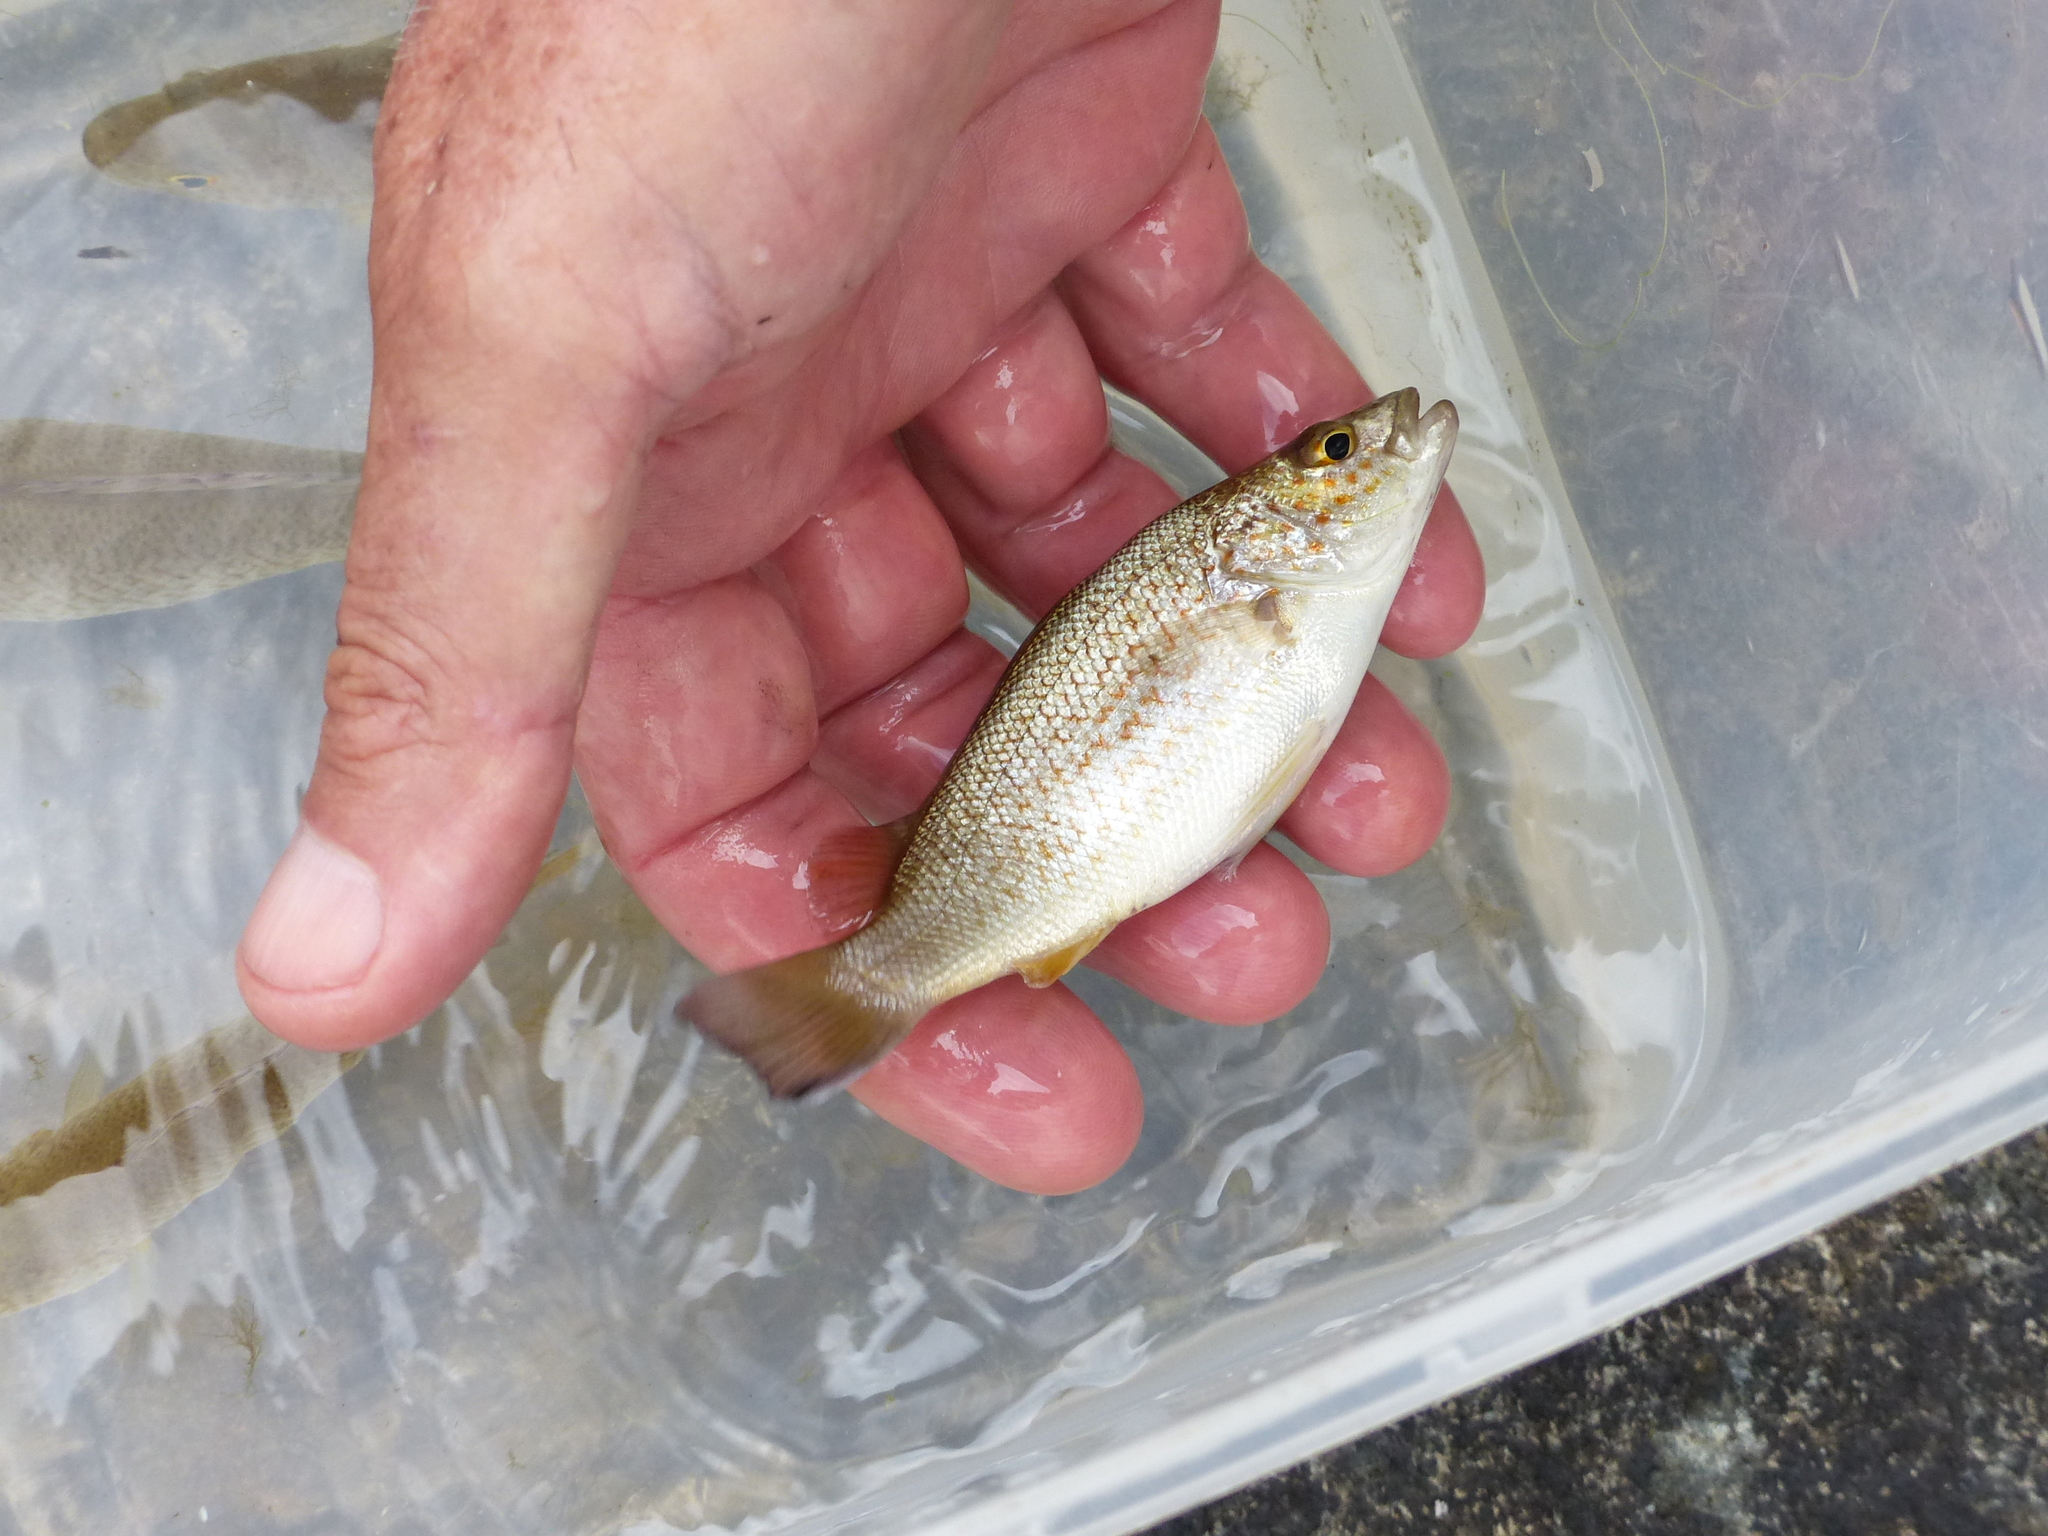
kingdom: Animalia
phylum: Chordata
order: Perciformes
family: Terapontidae
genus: Leiopotherapon
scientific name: Leiopotherapon unicolor
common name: Bobby
